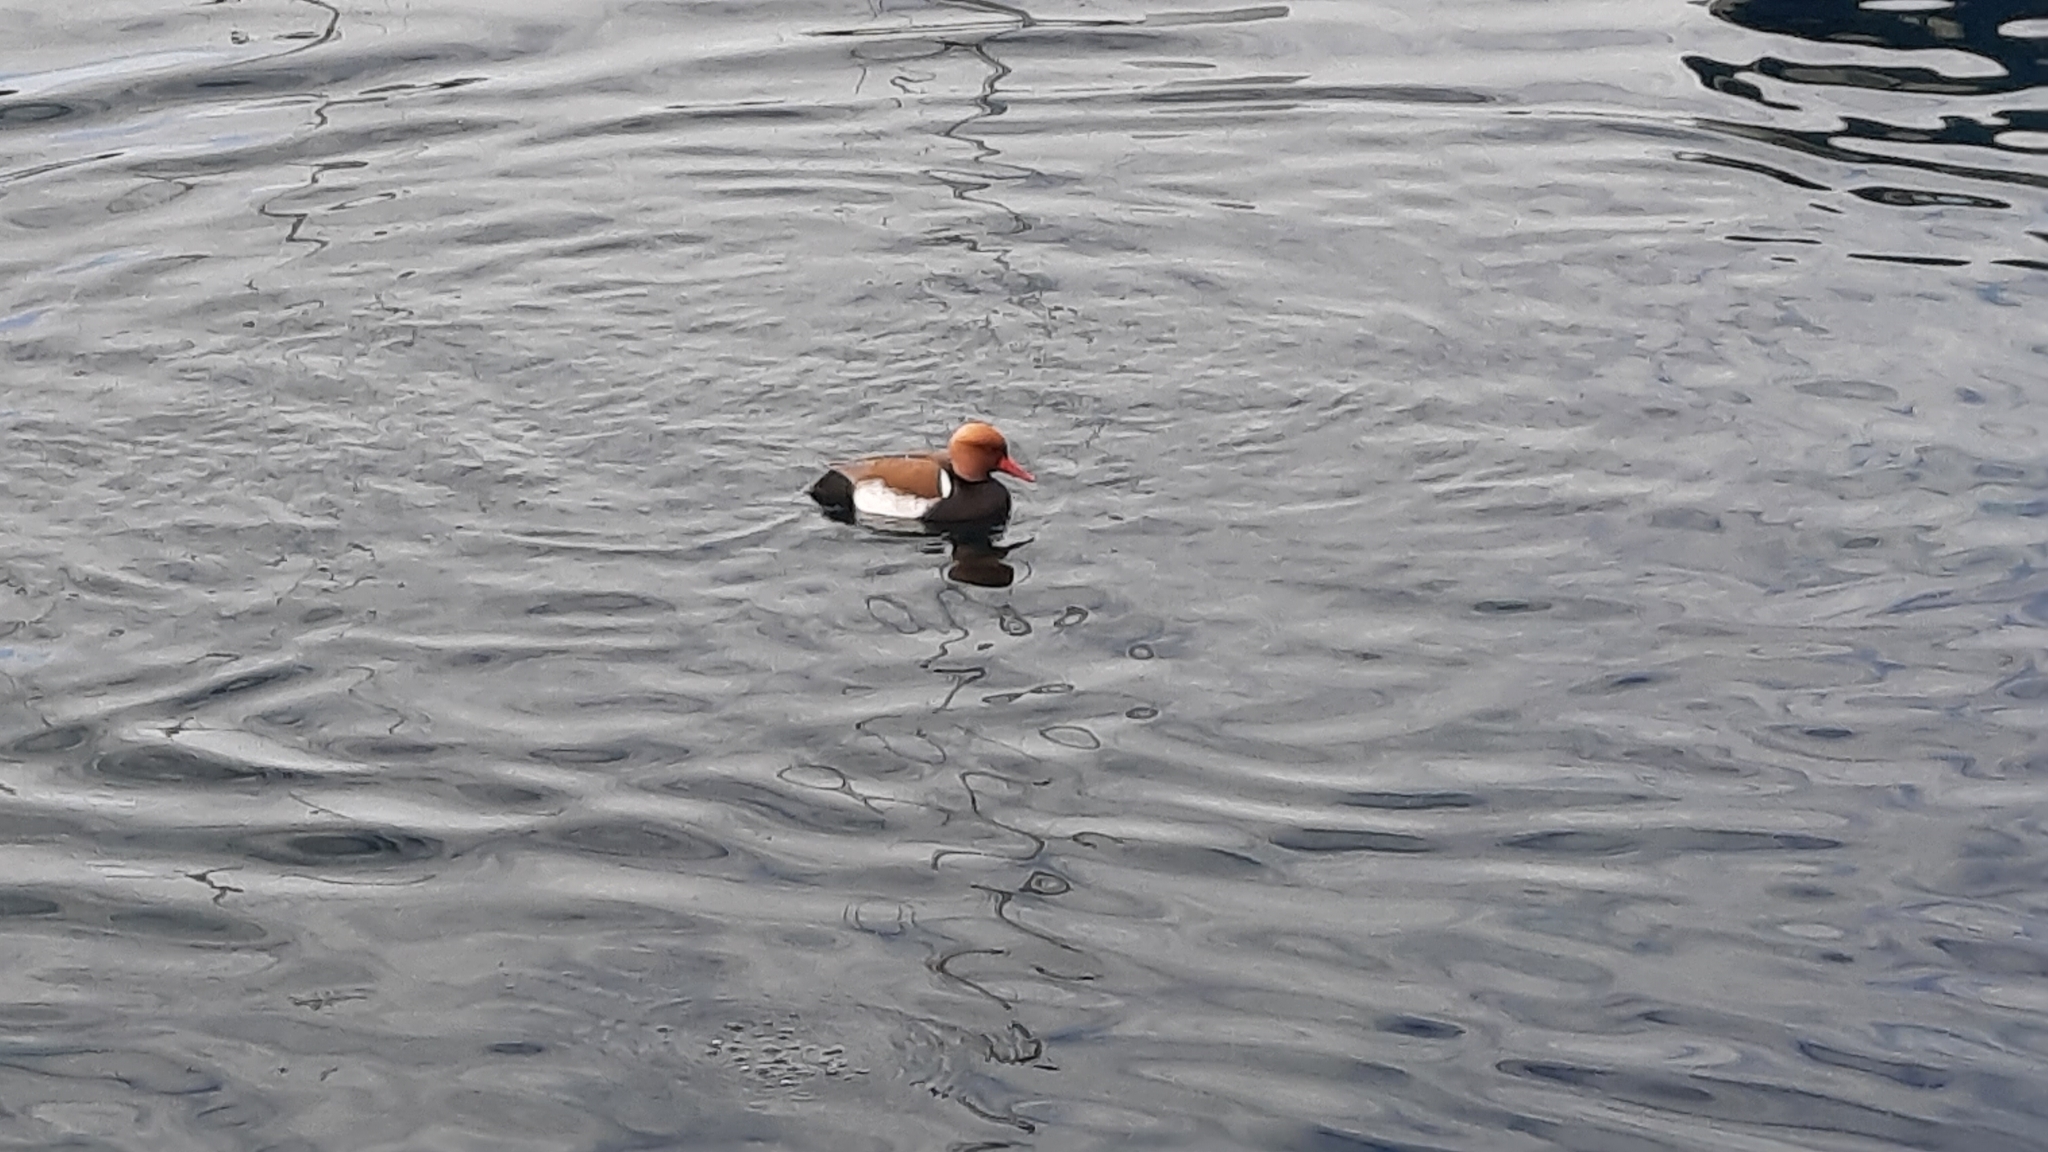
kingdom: Animalia
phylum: Chordata
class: Aves
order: Anseriformes
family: Anatidae
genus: Netta
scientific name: Netta rufina
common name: Red-crested pochard
